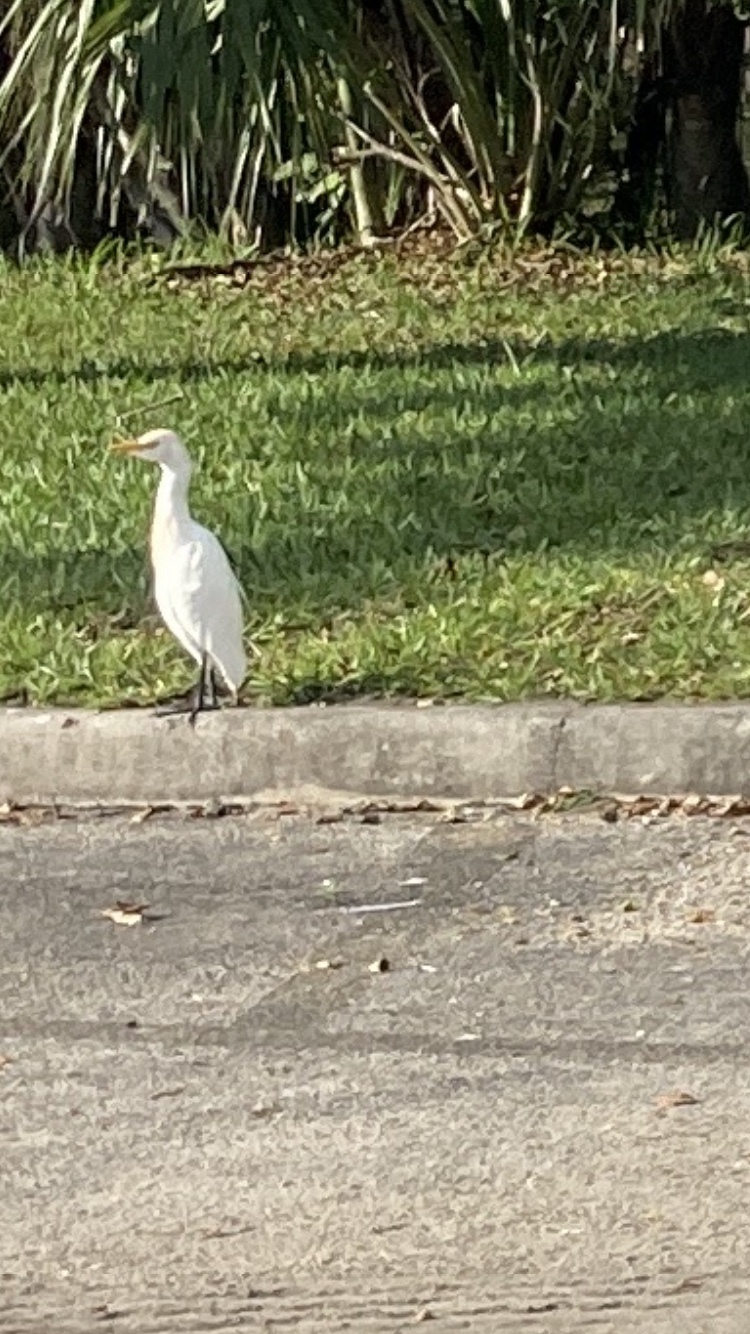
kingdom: Animalia
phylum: Chordata
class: Aves
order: Pelecaniformes
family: Ardeidae
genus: Bubulcus
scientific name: Bubulcus ibis
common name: Cattle egret
